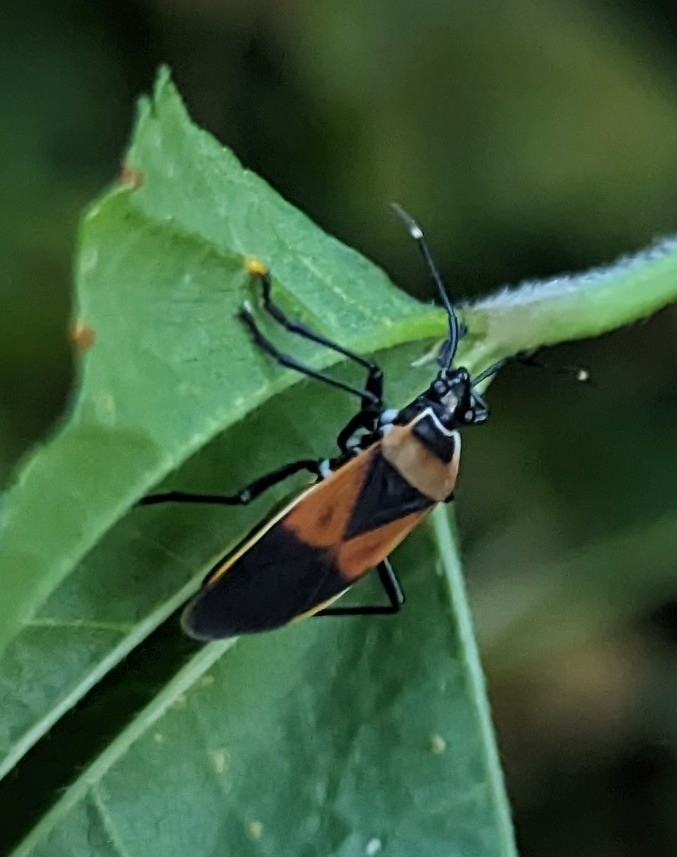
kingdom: Animalia
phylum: Arthropoda
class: Insecta
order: Hemiptera
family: Pyrrhocoridae
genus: Dindymus
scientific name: Dindymus
